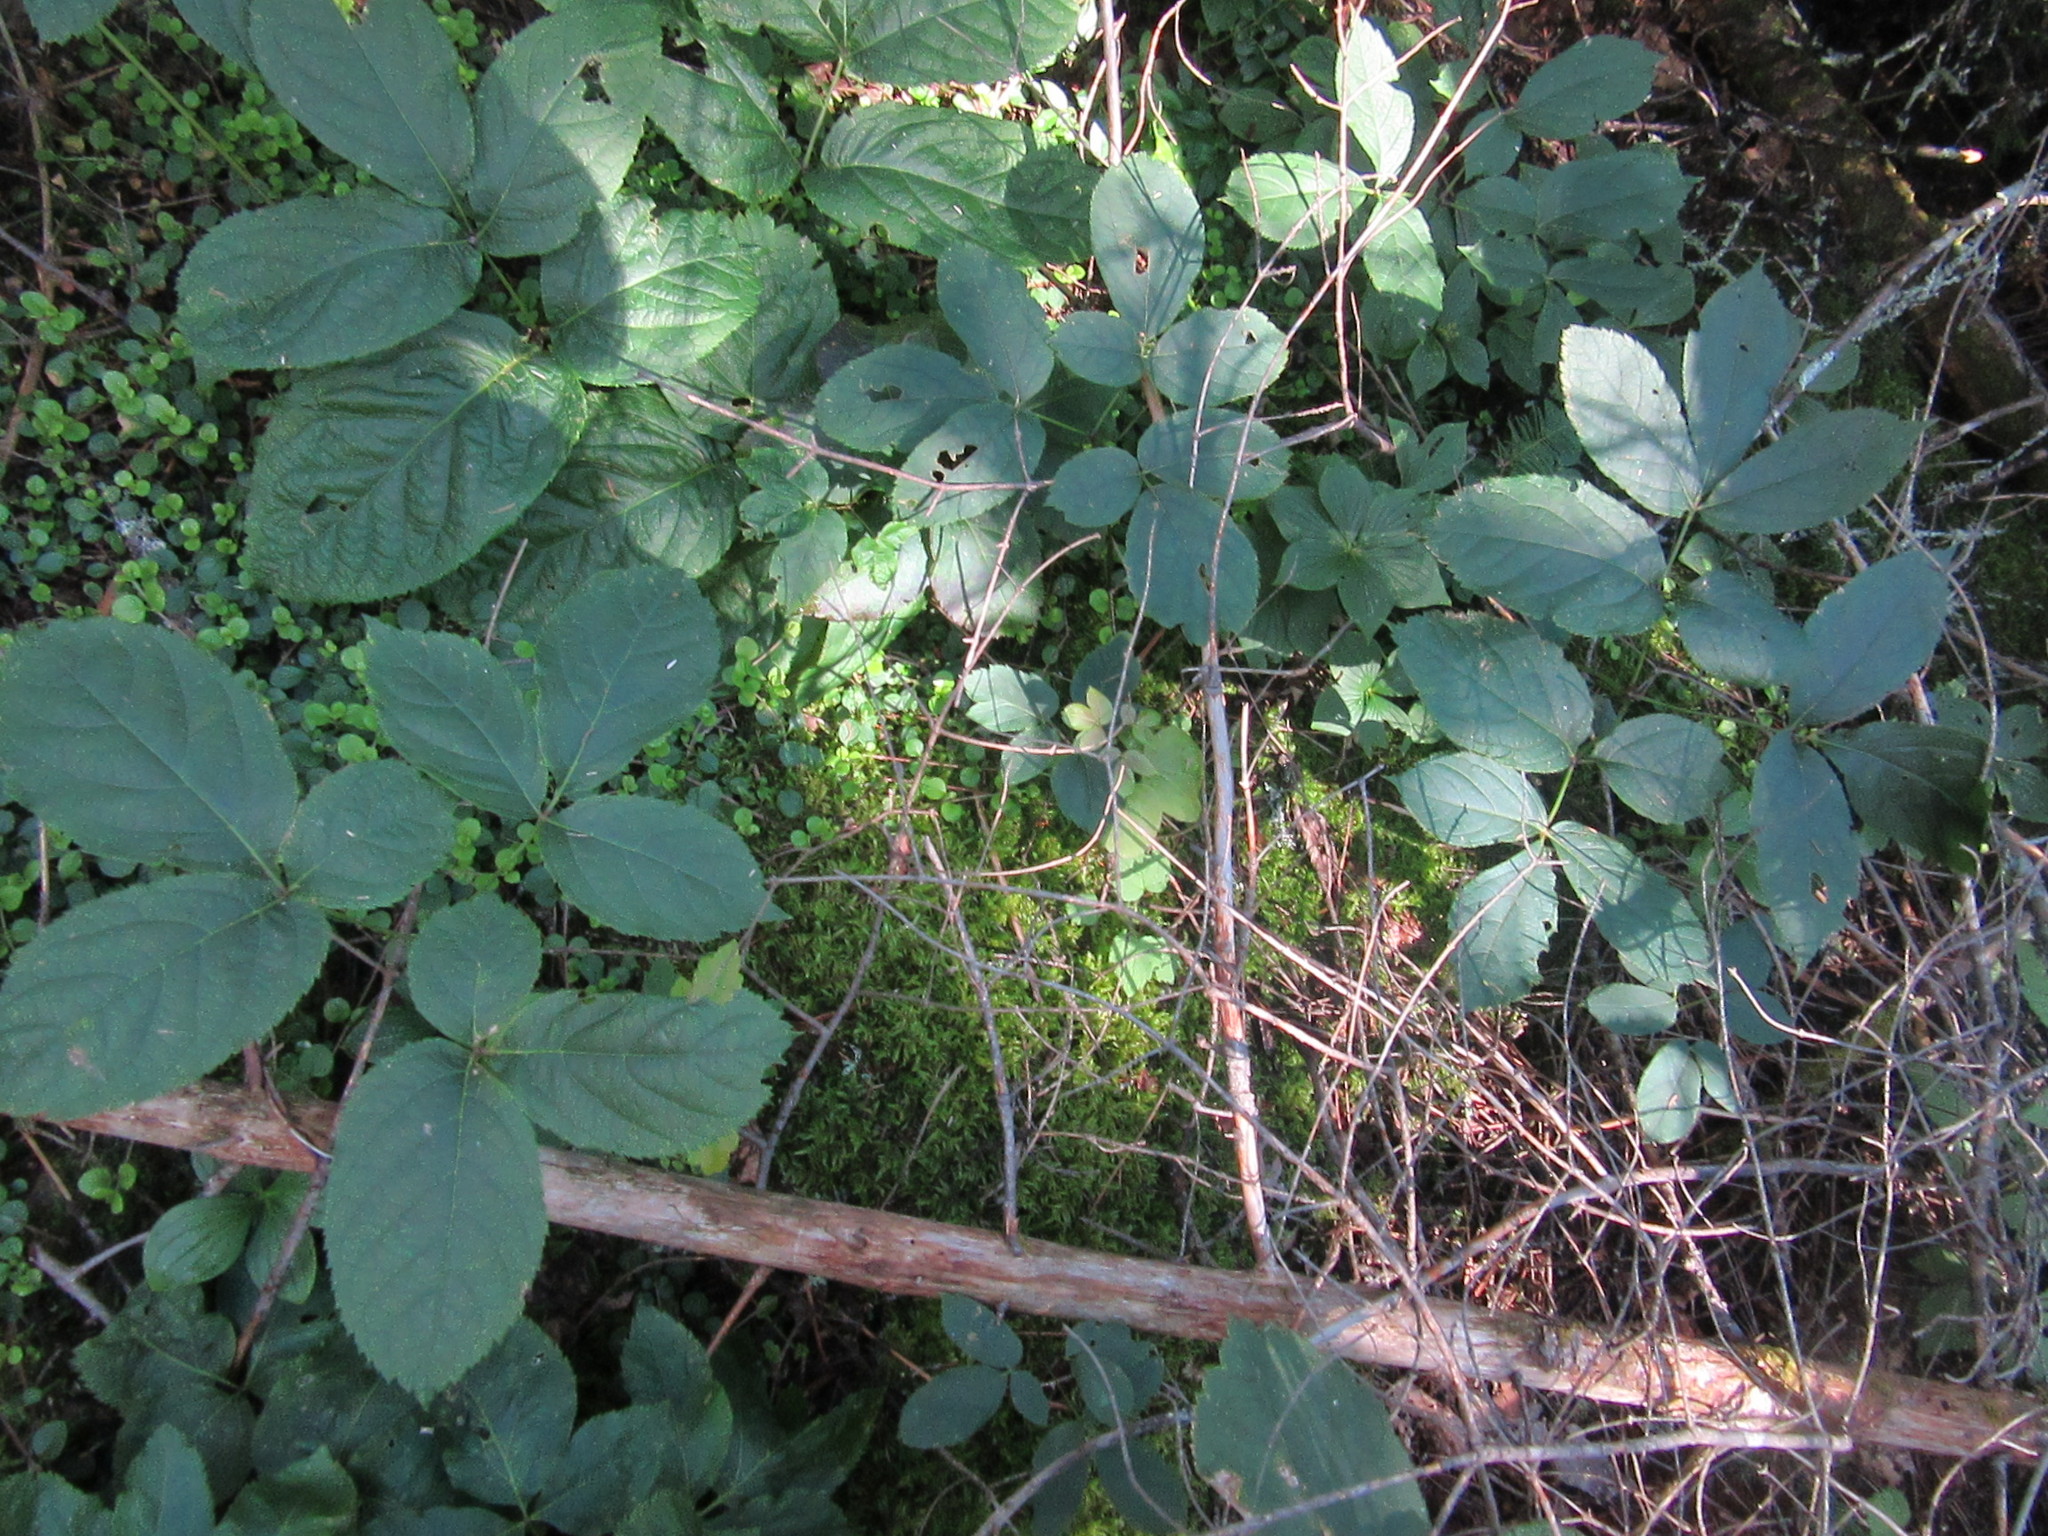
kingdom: Plantae
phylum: Tracheophyta
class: Magnoliopsida
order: Apiales
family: Araliaceae
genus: Aralia
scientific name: Aralia nudicaulis
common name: Wild sarsaparilla
